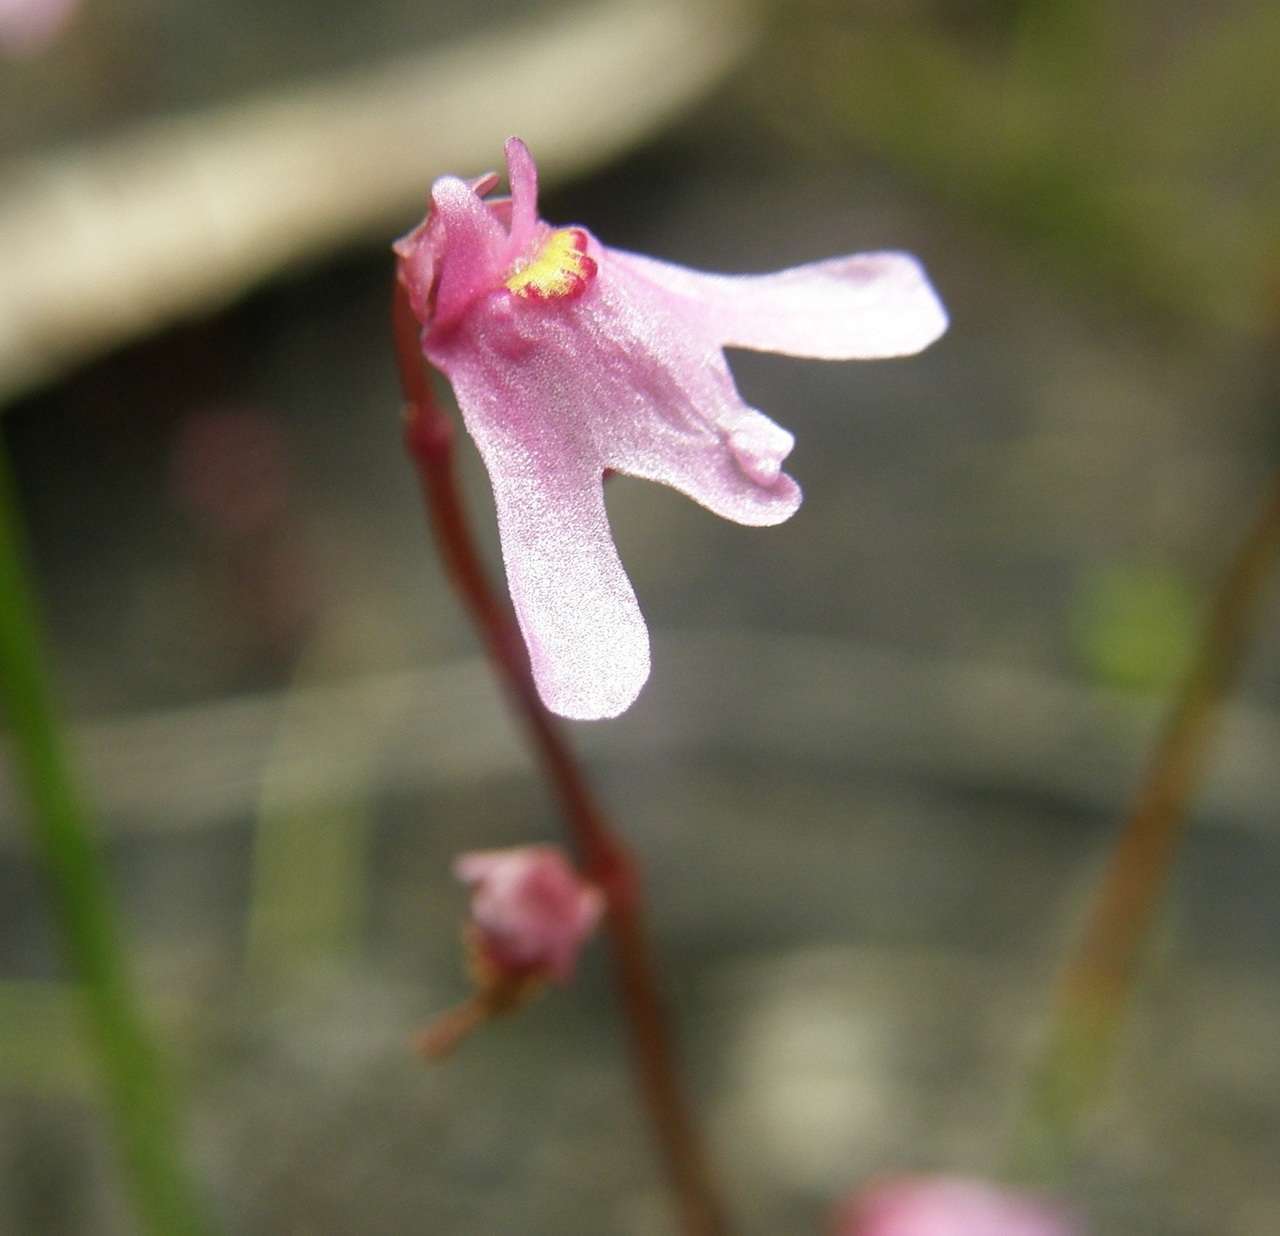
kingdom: Plantae
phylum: Tracheophyta
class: Magnoliopsida
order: Lamiales
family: Lentibulariaceae
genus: Utricularia
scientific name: Utricularia tenella
